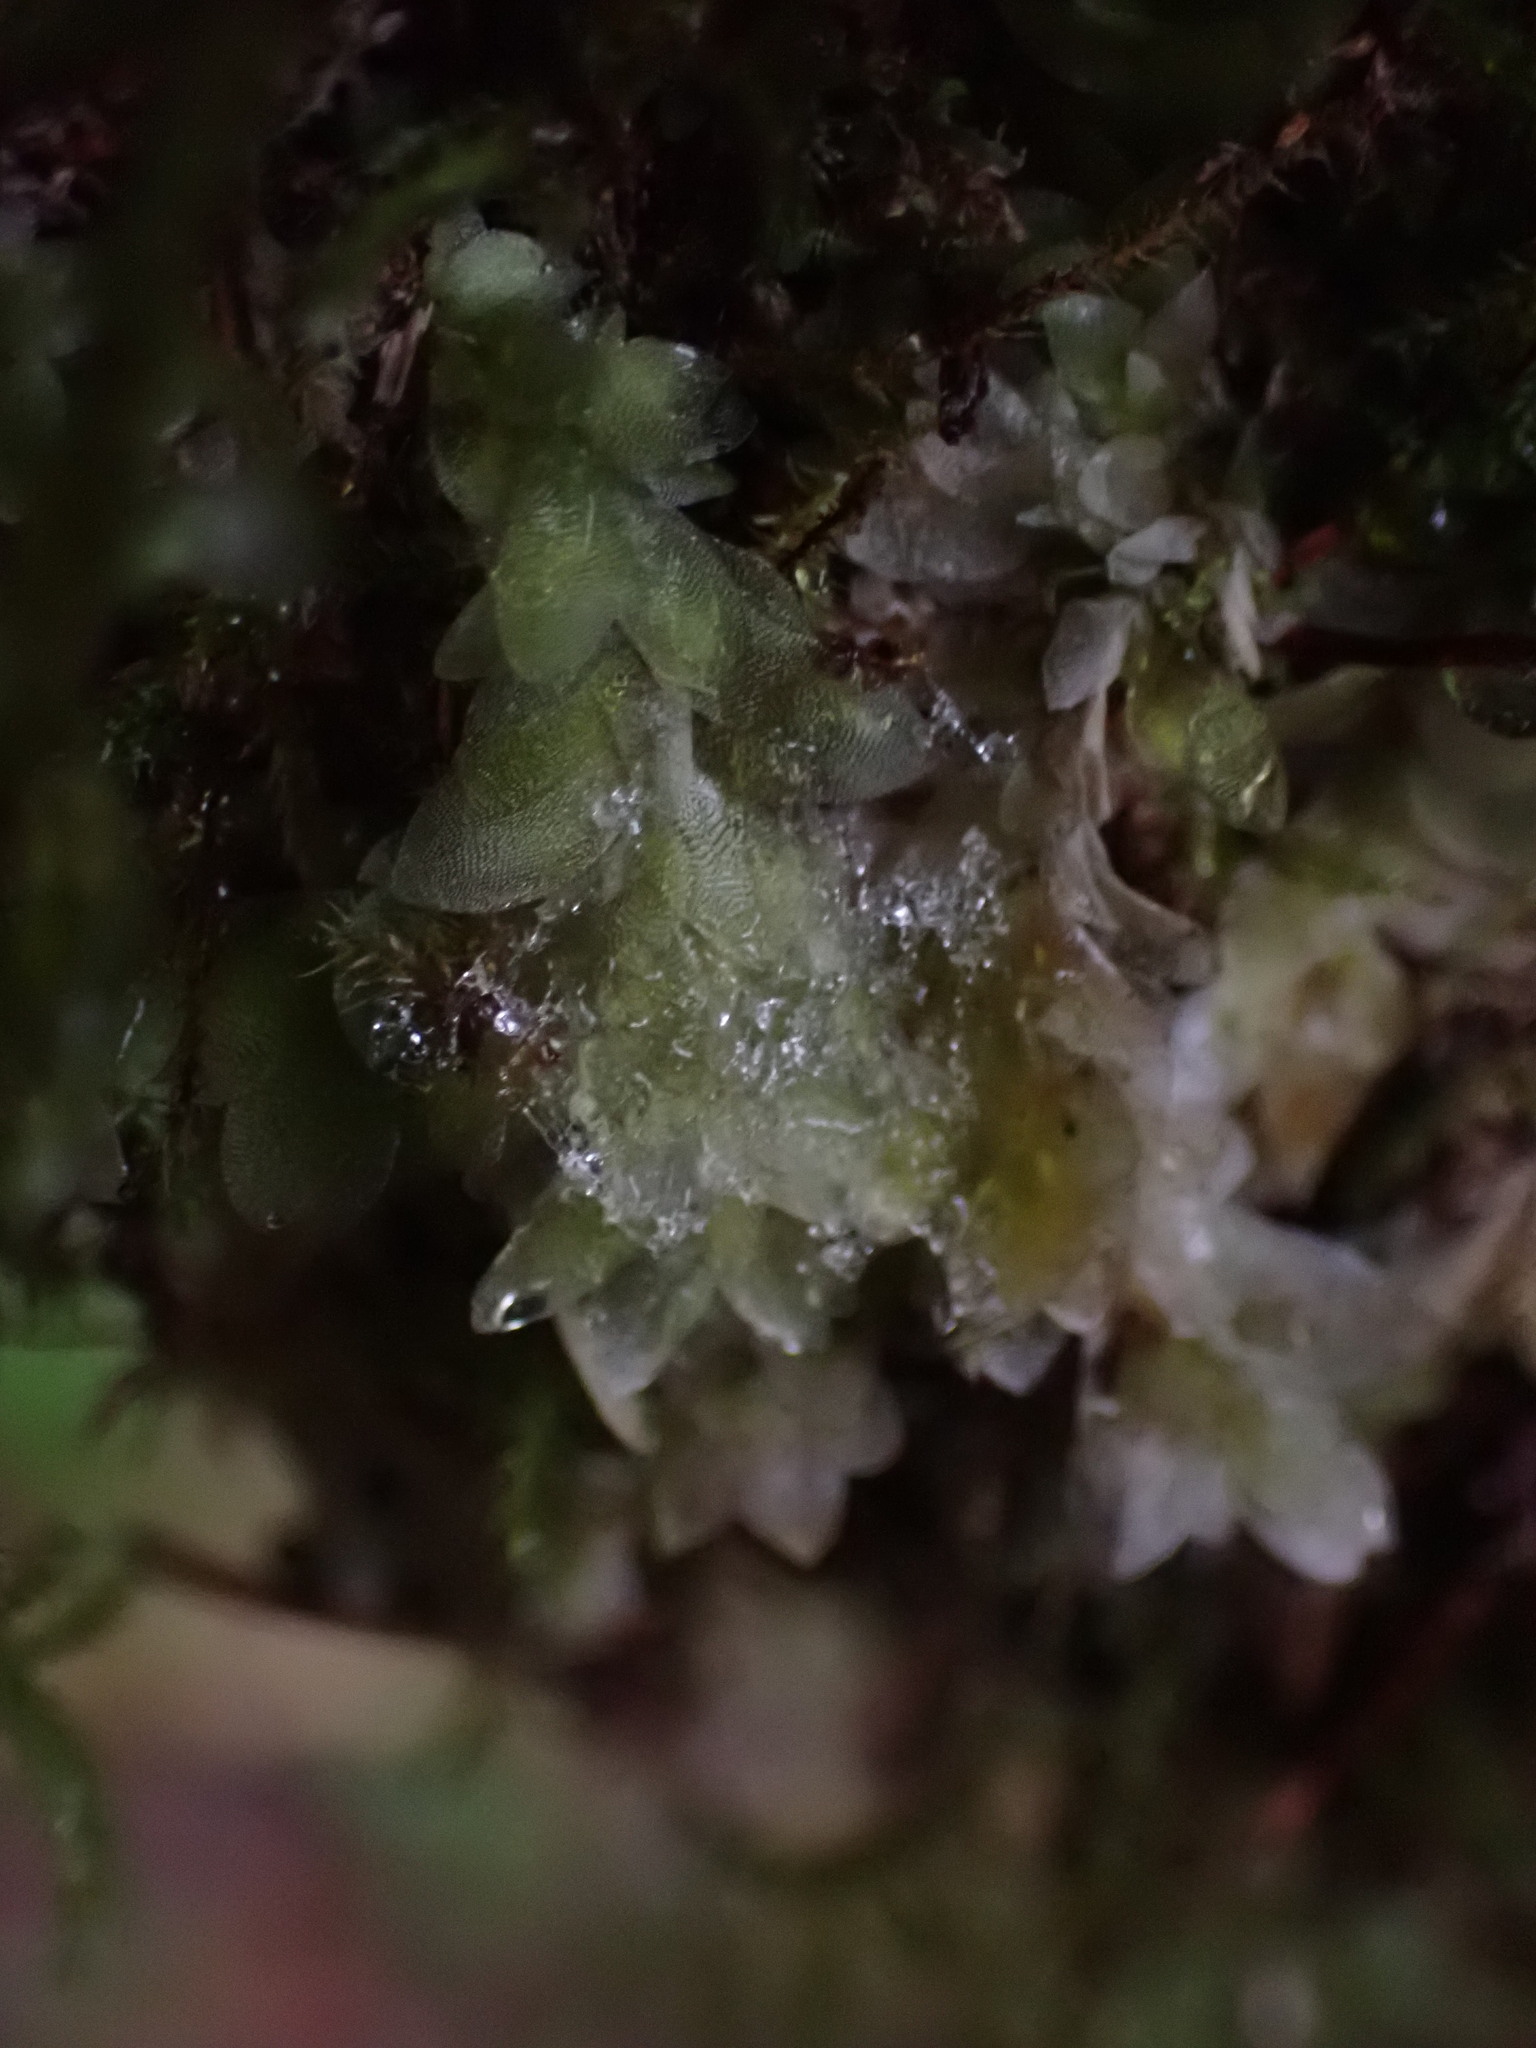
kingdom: Plantae
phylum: Bryophyta
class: Bryopsida
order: Hookeriales
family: Hookeriaceae
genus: Hookeria
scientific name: Hookeria lucens
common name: Shining hookeria
